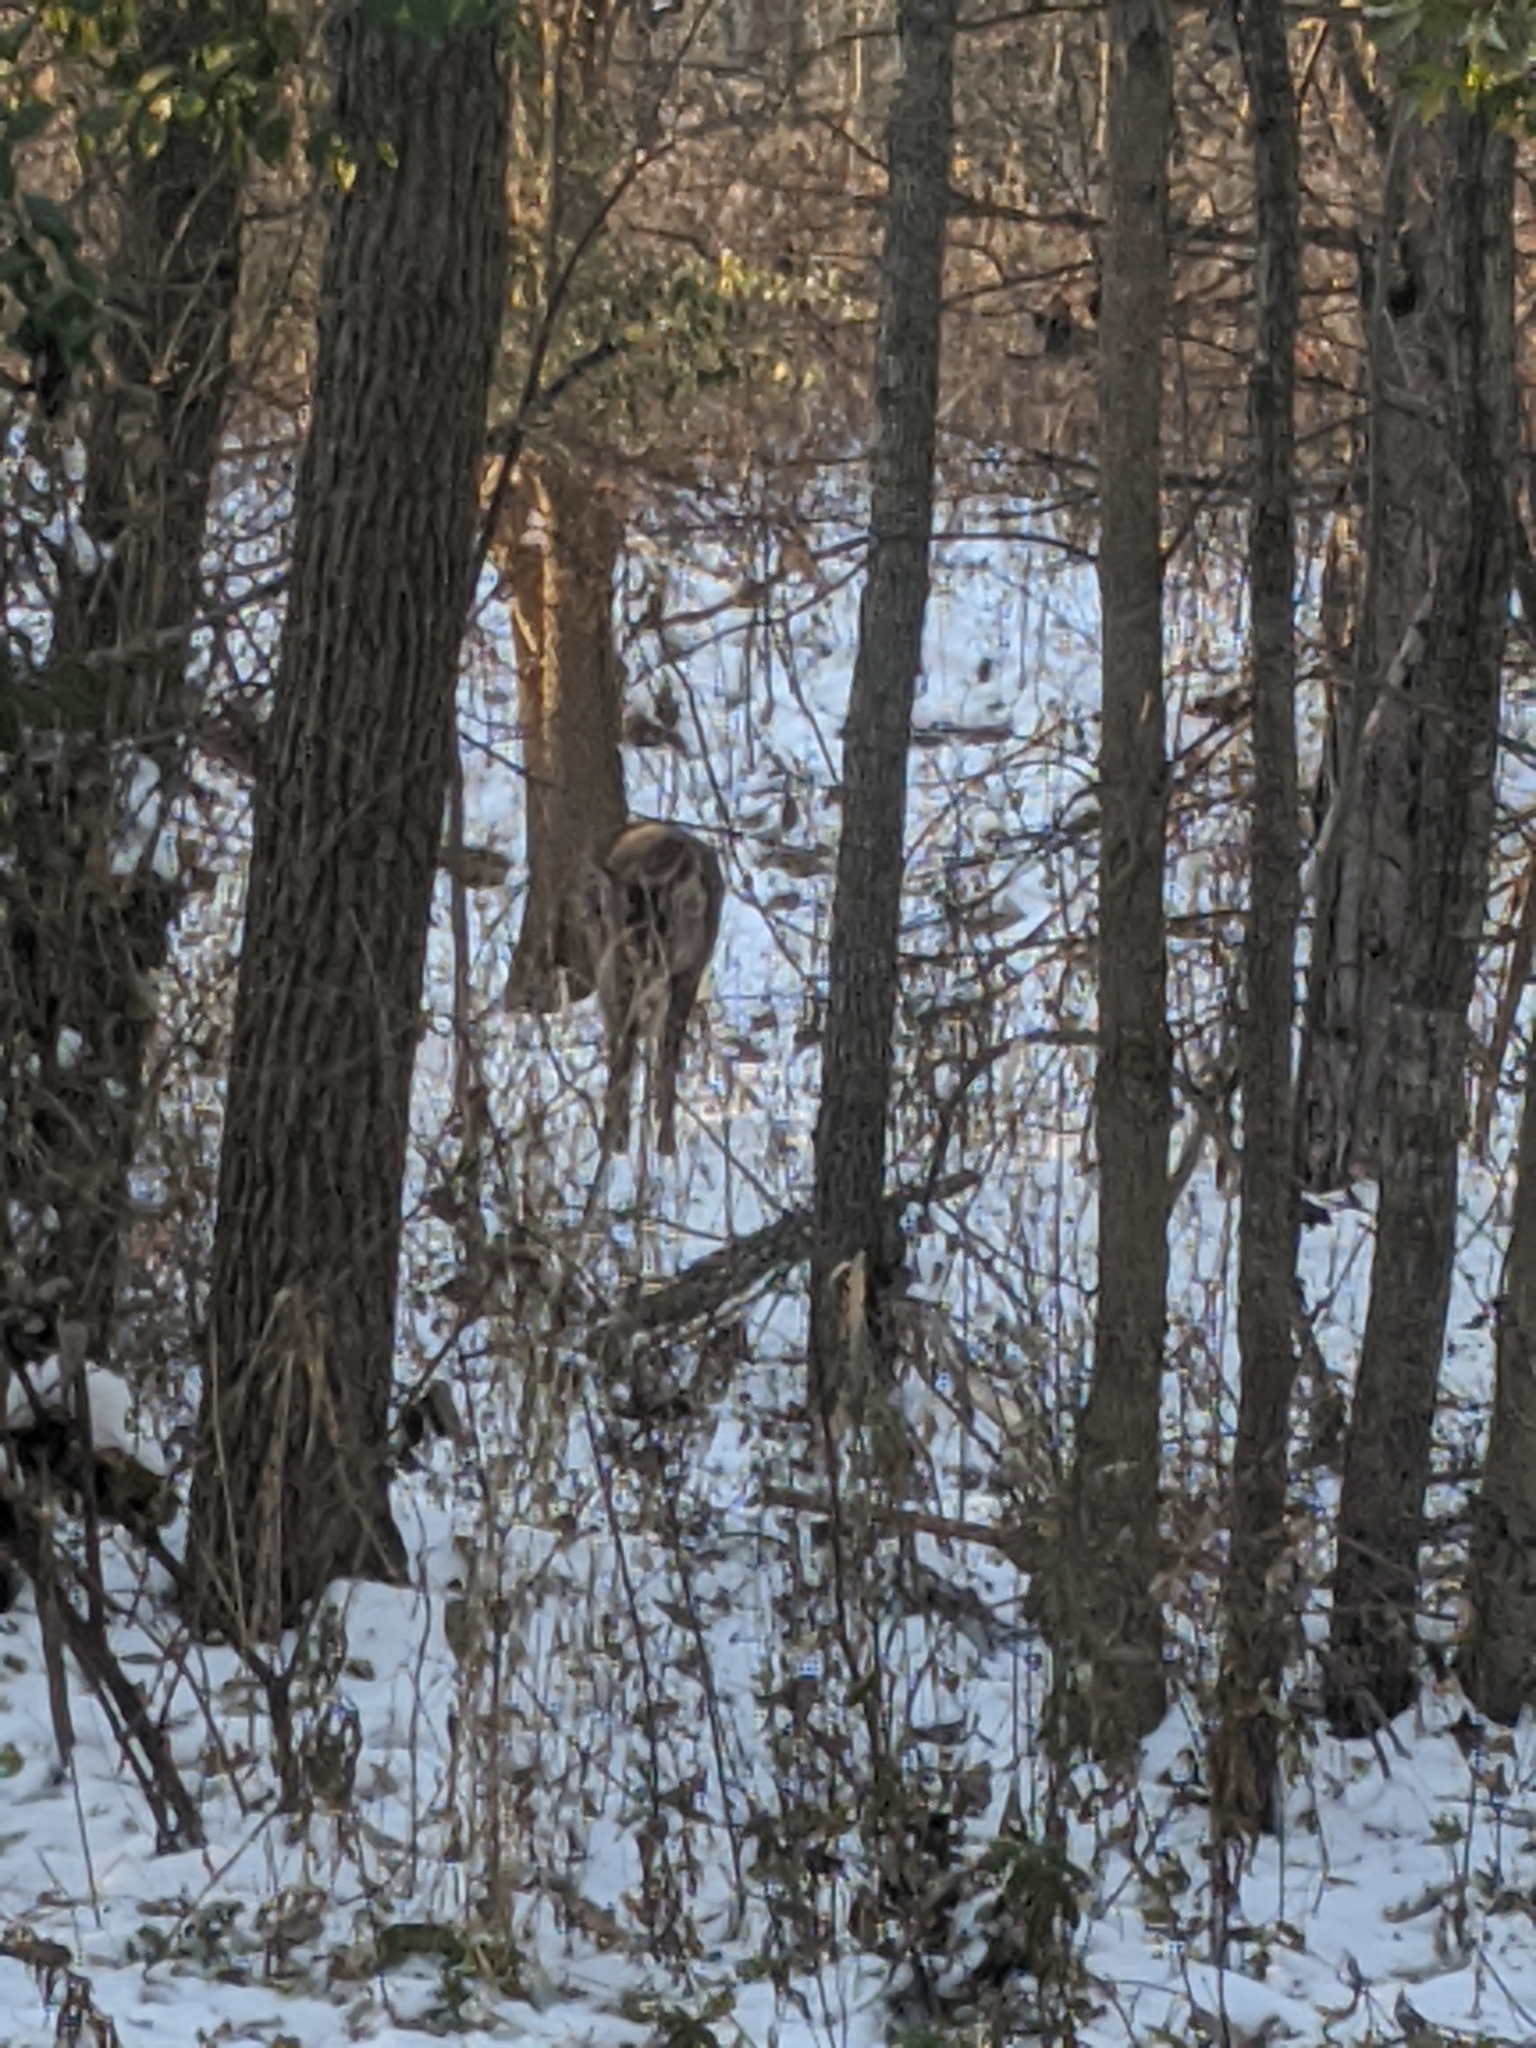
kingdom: Animalia
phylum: Chordata
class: Mammalia
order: Artiodactyla
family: Cervidae
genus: Odocoileus
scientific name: Odocoileus virginianus
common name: White-tailed deer
